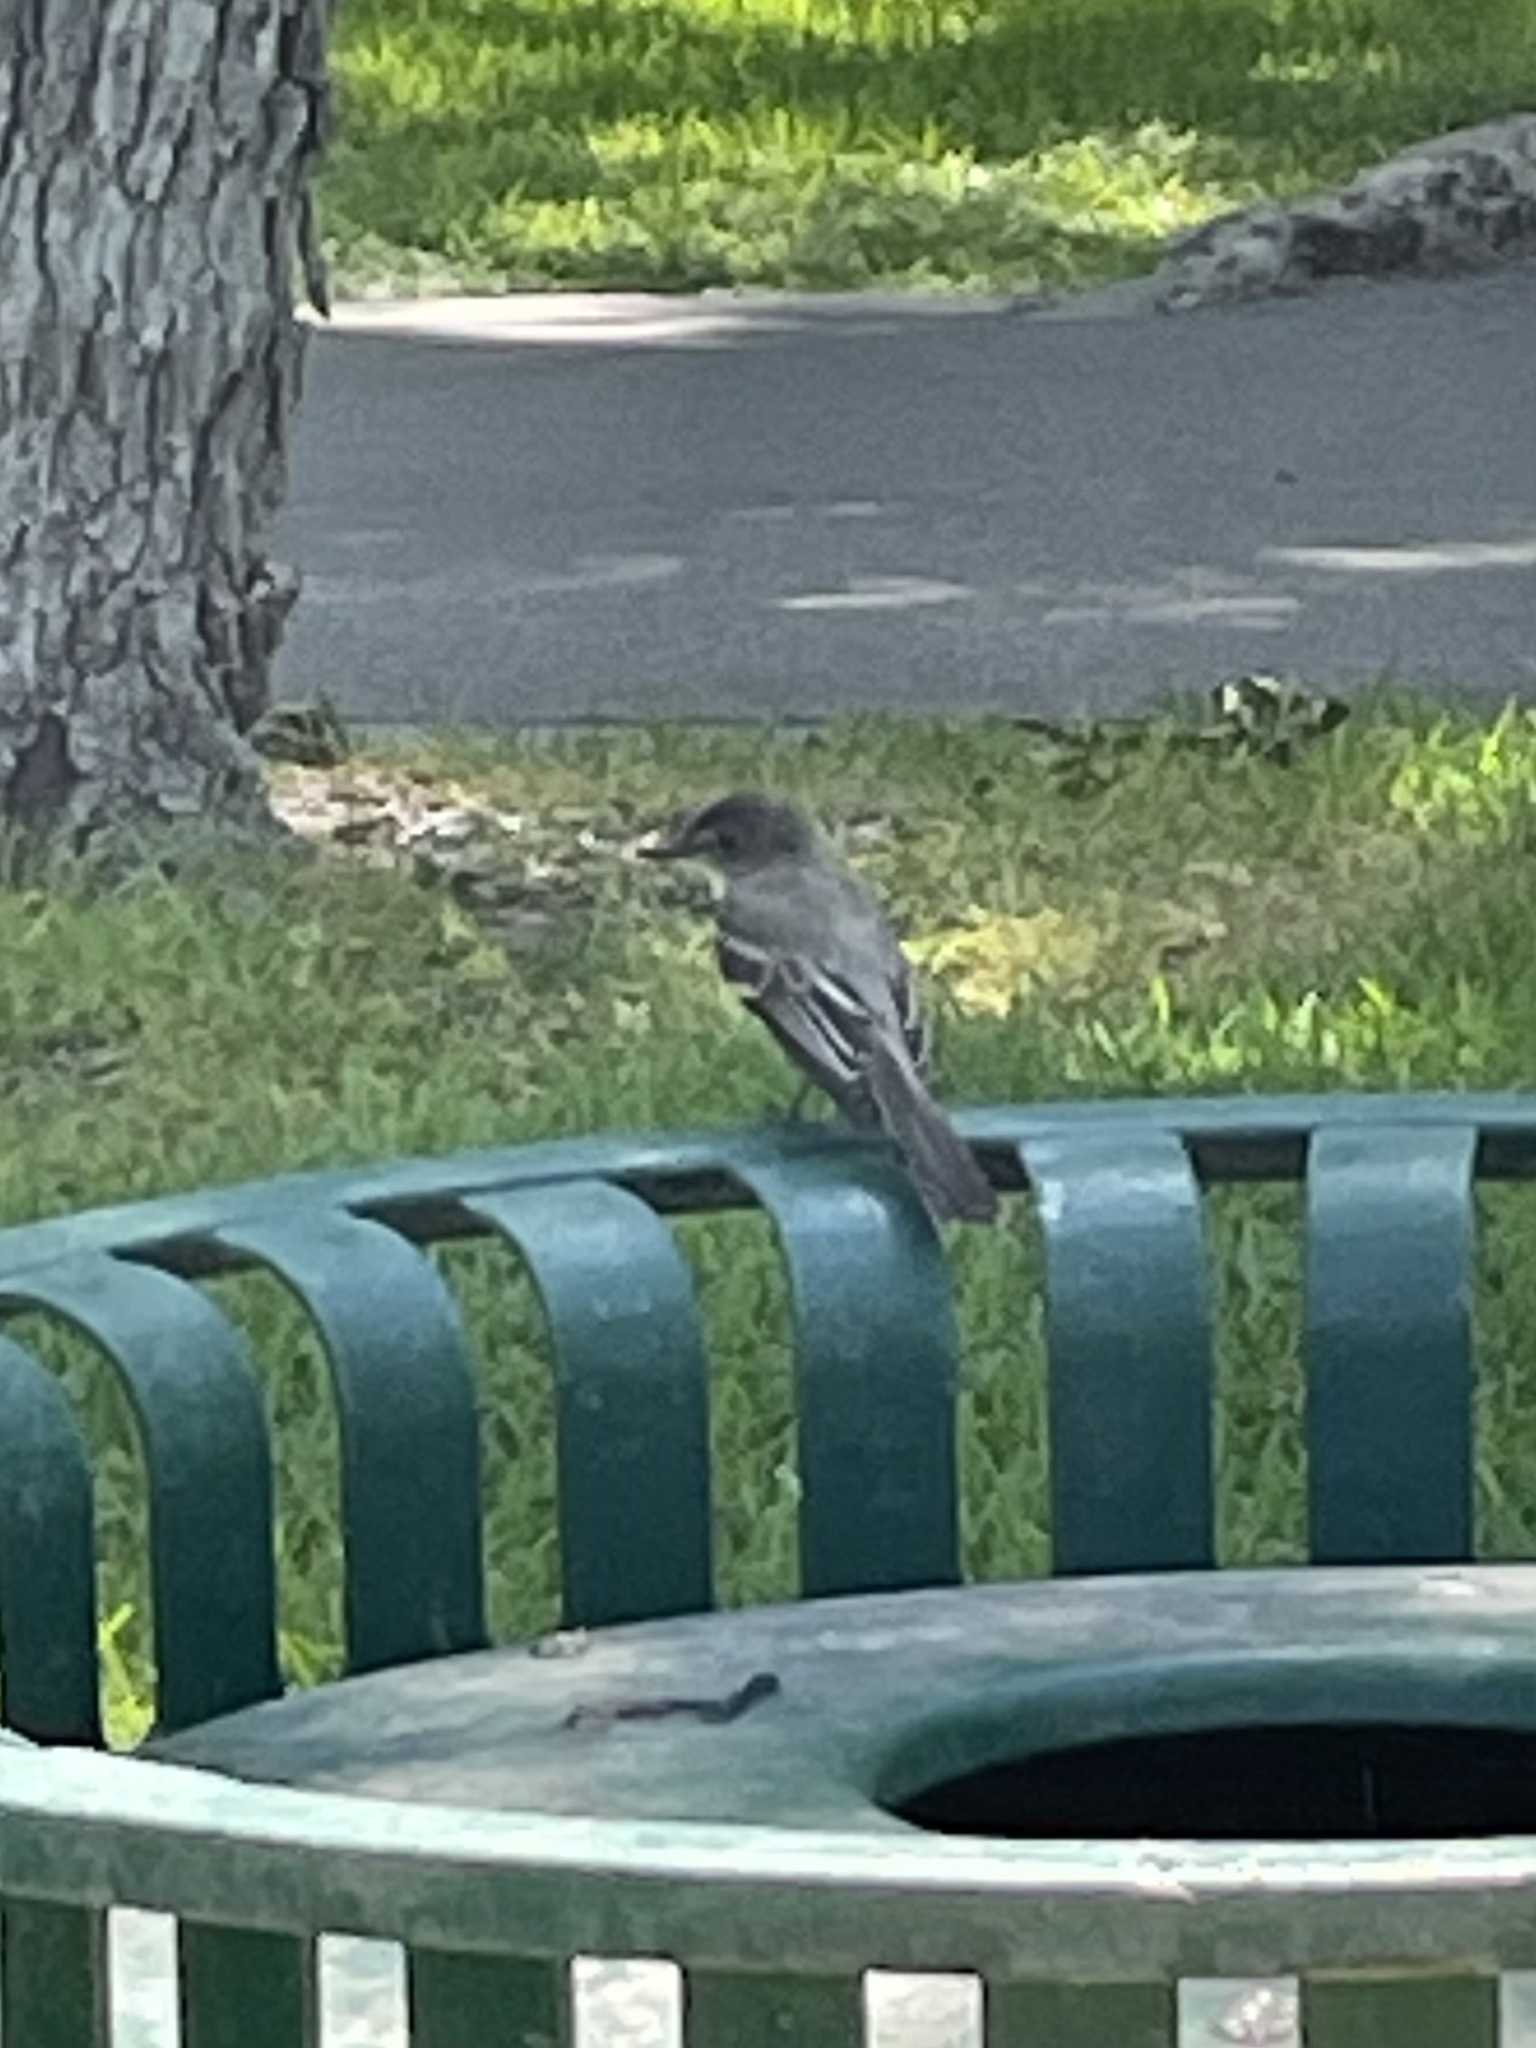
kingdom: Animalia
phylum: Chordata
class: Aves
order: Passeriformes
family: Tyrannidae
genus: Sayornis
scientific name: Sayornis phoebe
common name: Eastern phoebe
